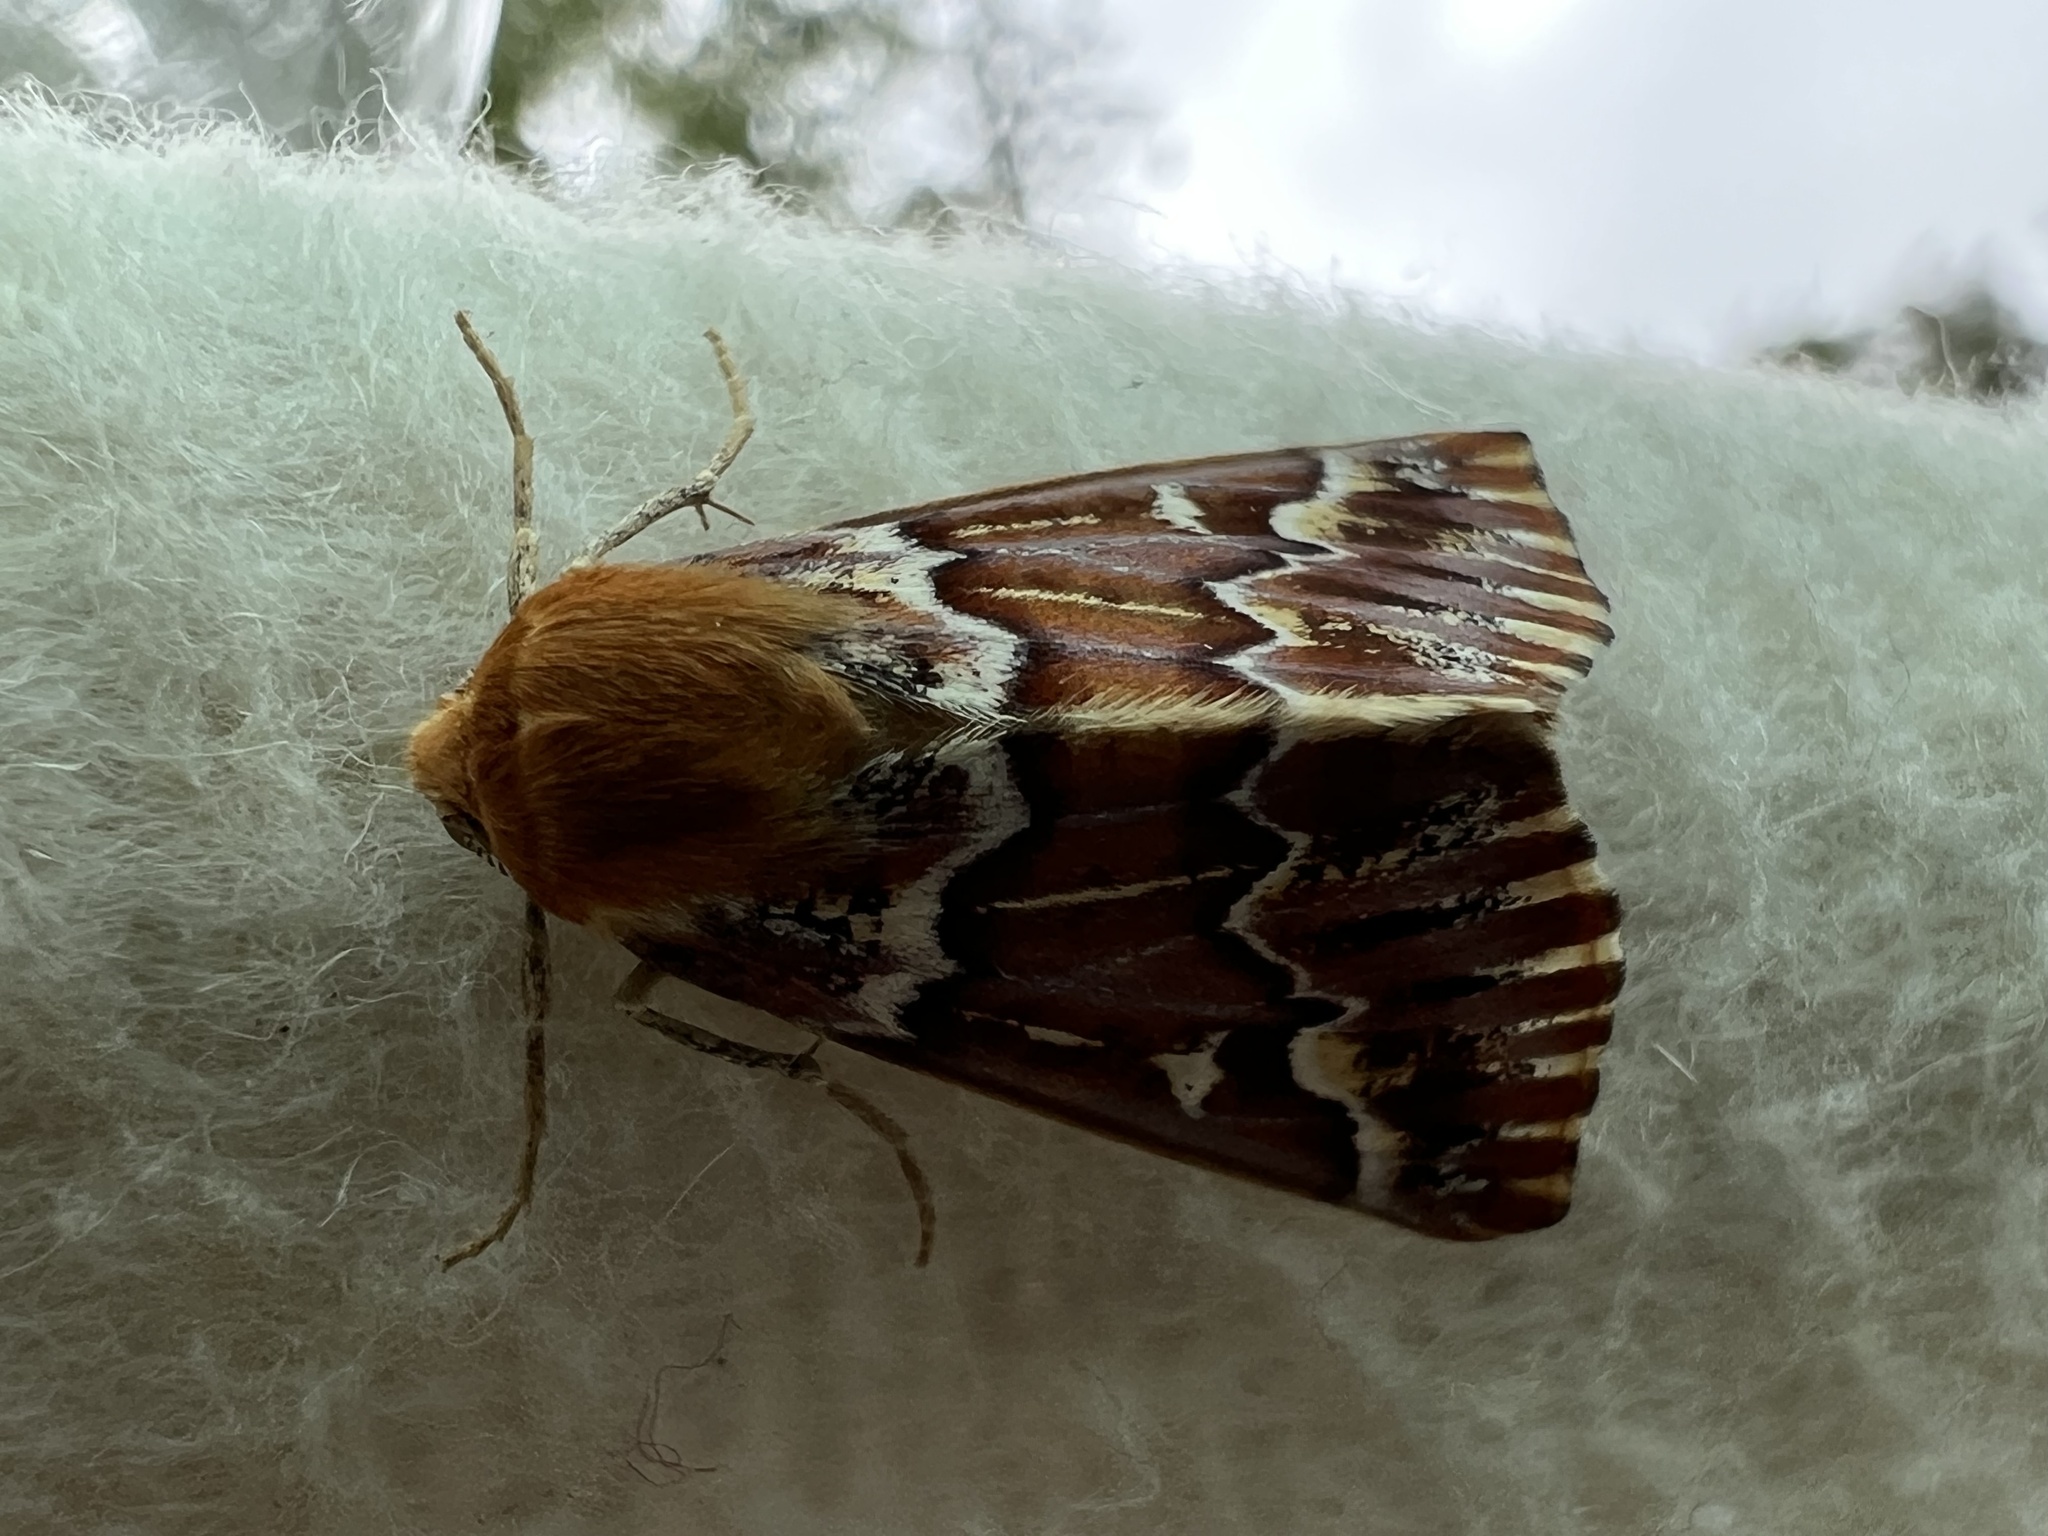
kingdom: Animalia
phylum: Arthropoda
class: Insecta
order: Lepidoptera
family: Geometridae
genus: Caripeta
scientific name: Caripeta aequaliaria
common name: Red girdle moth
